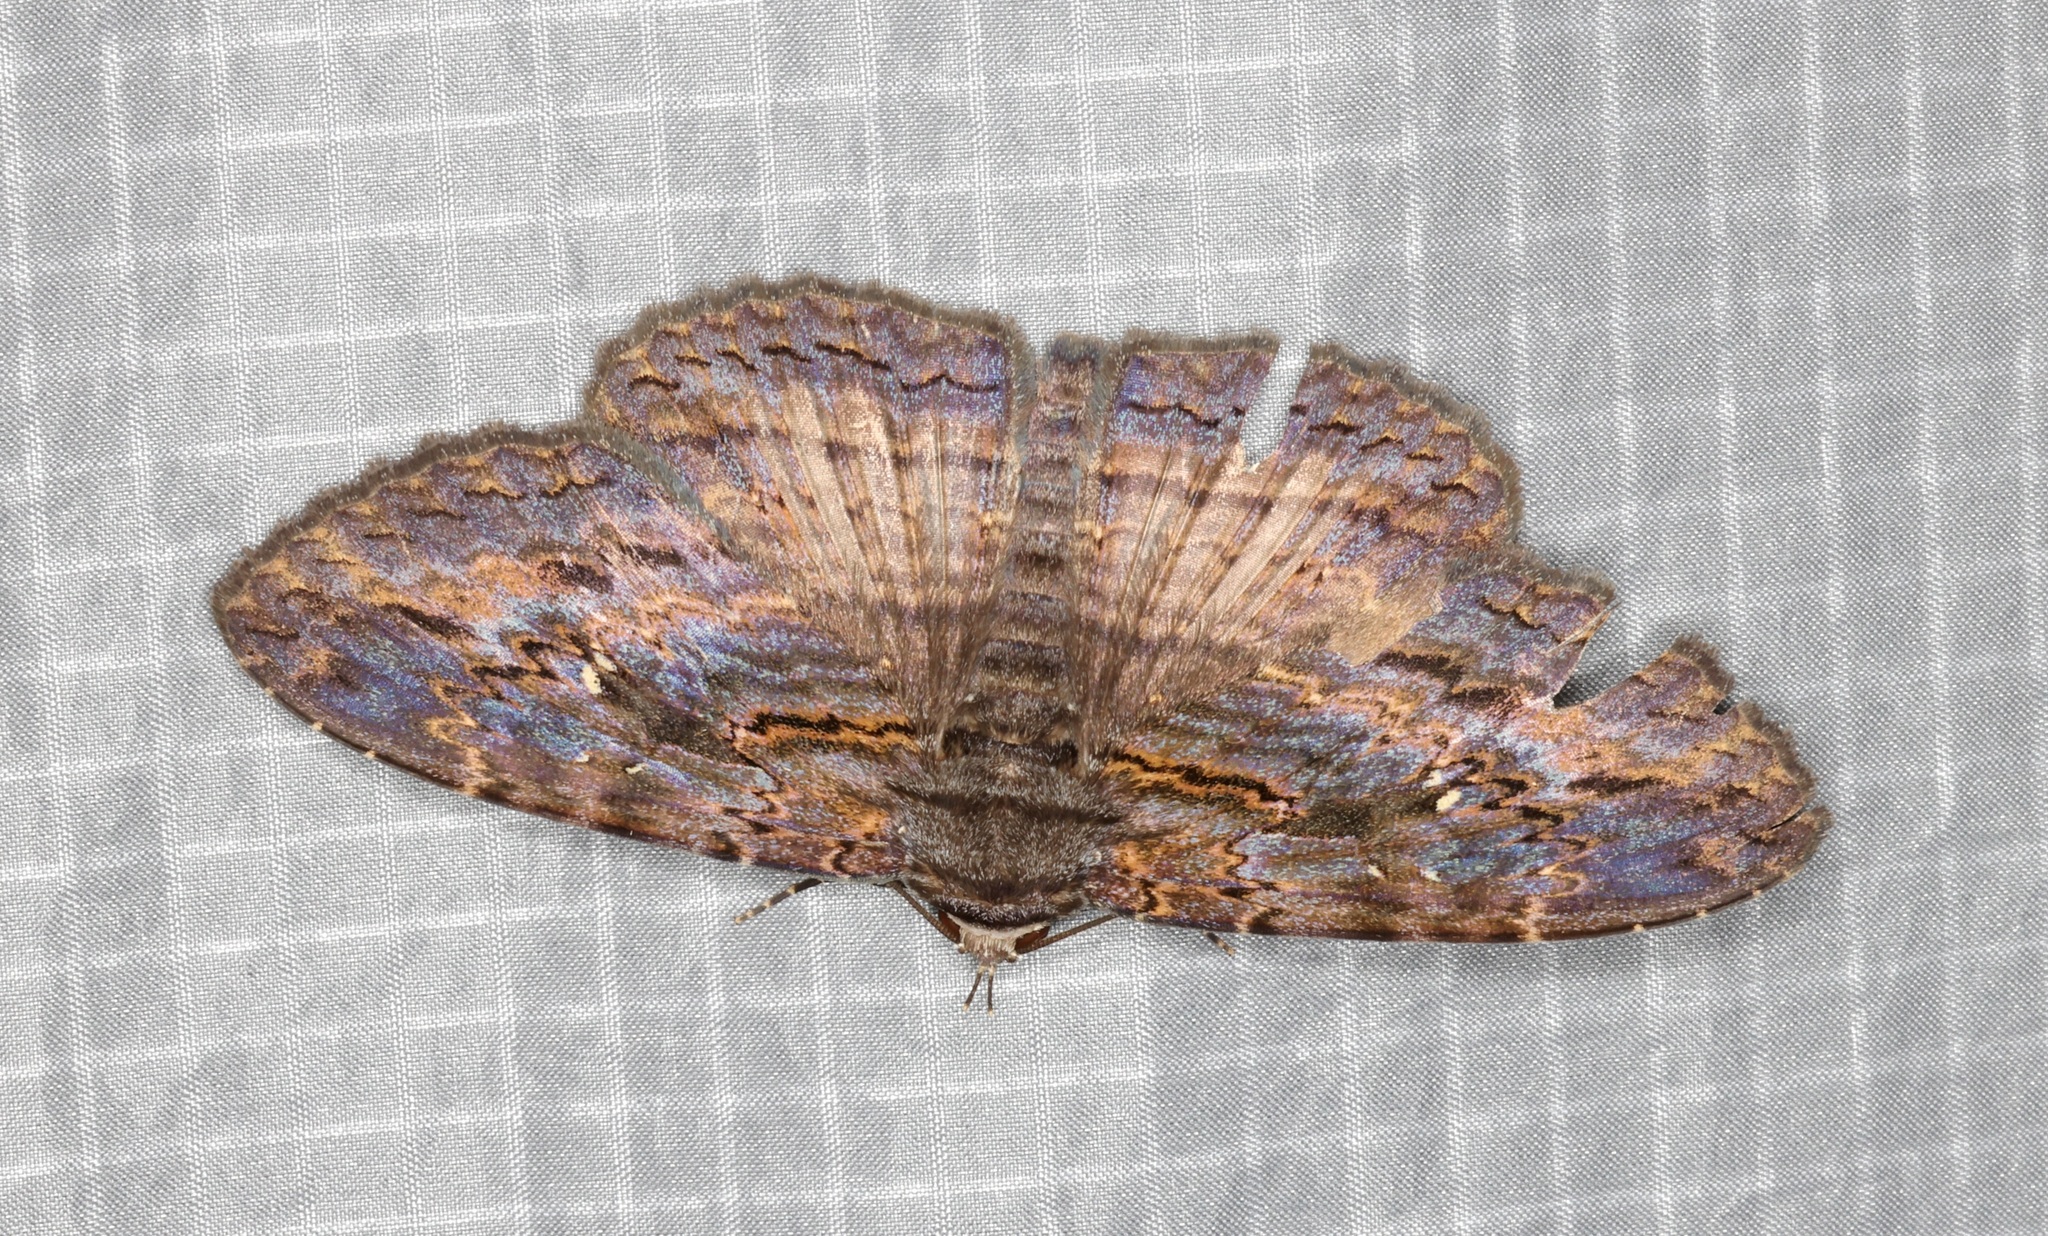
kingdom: Animalia
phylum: Arthropoda
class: Insecta
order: Lepidoptera
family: Erebidae
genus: Anisoneura
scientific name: Anisoneura salebrosa
